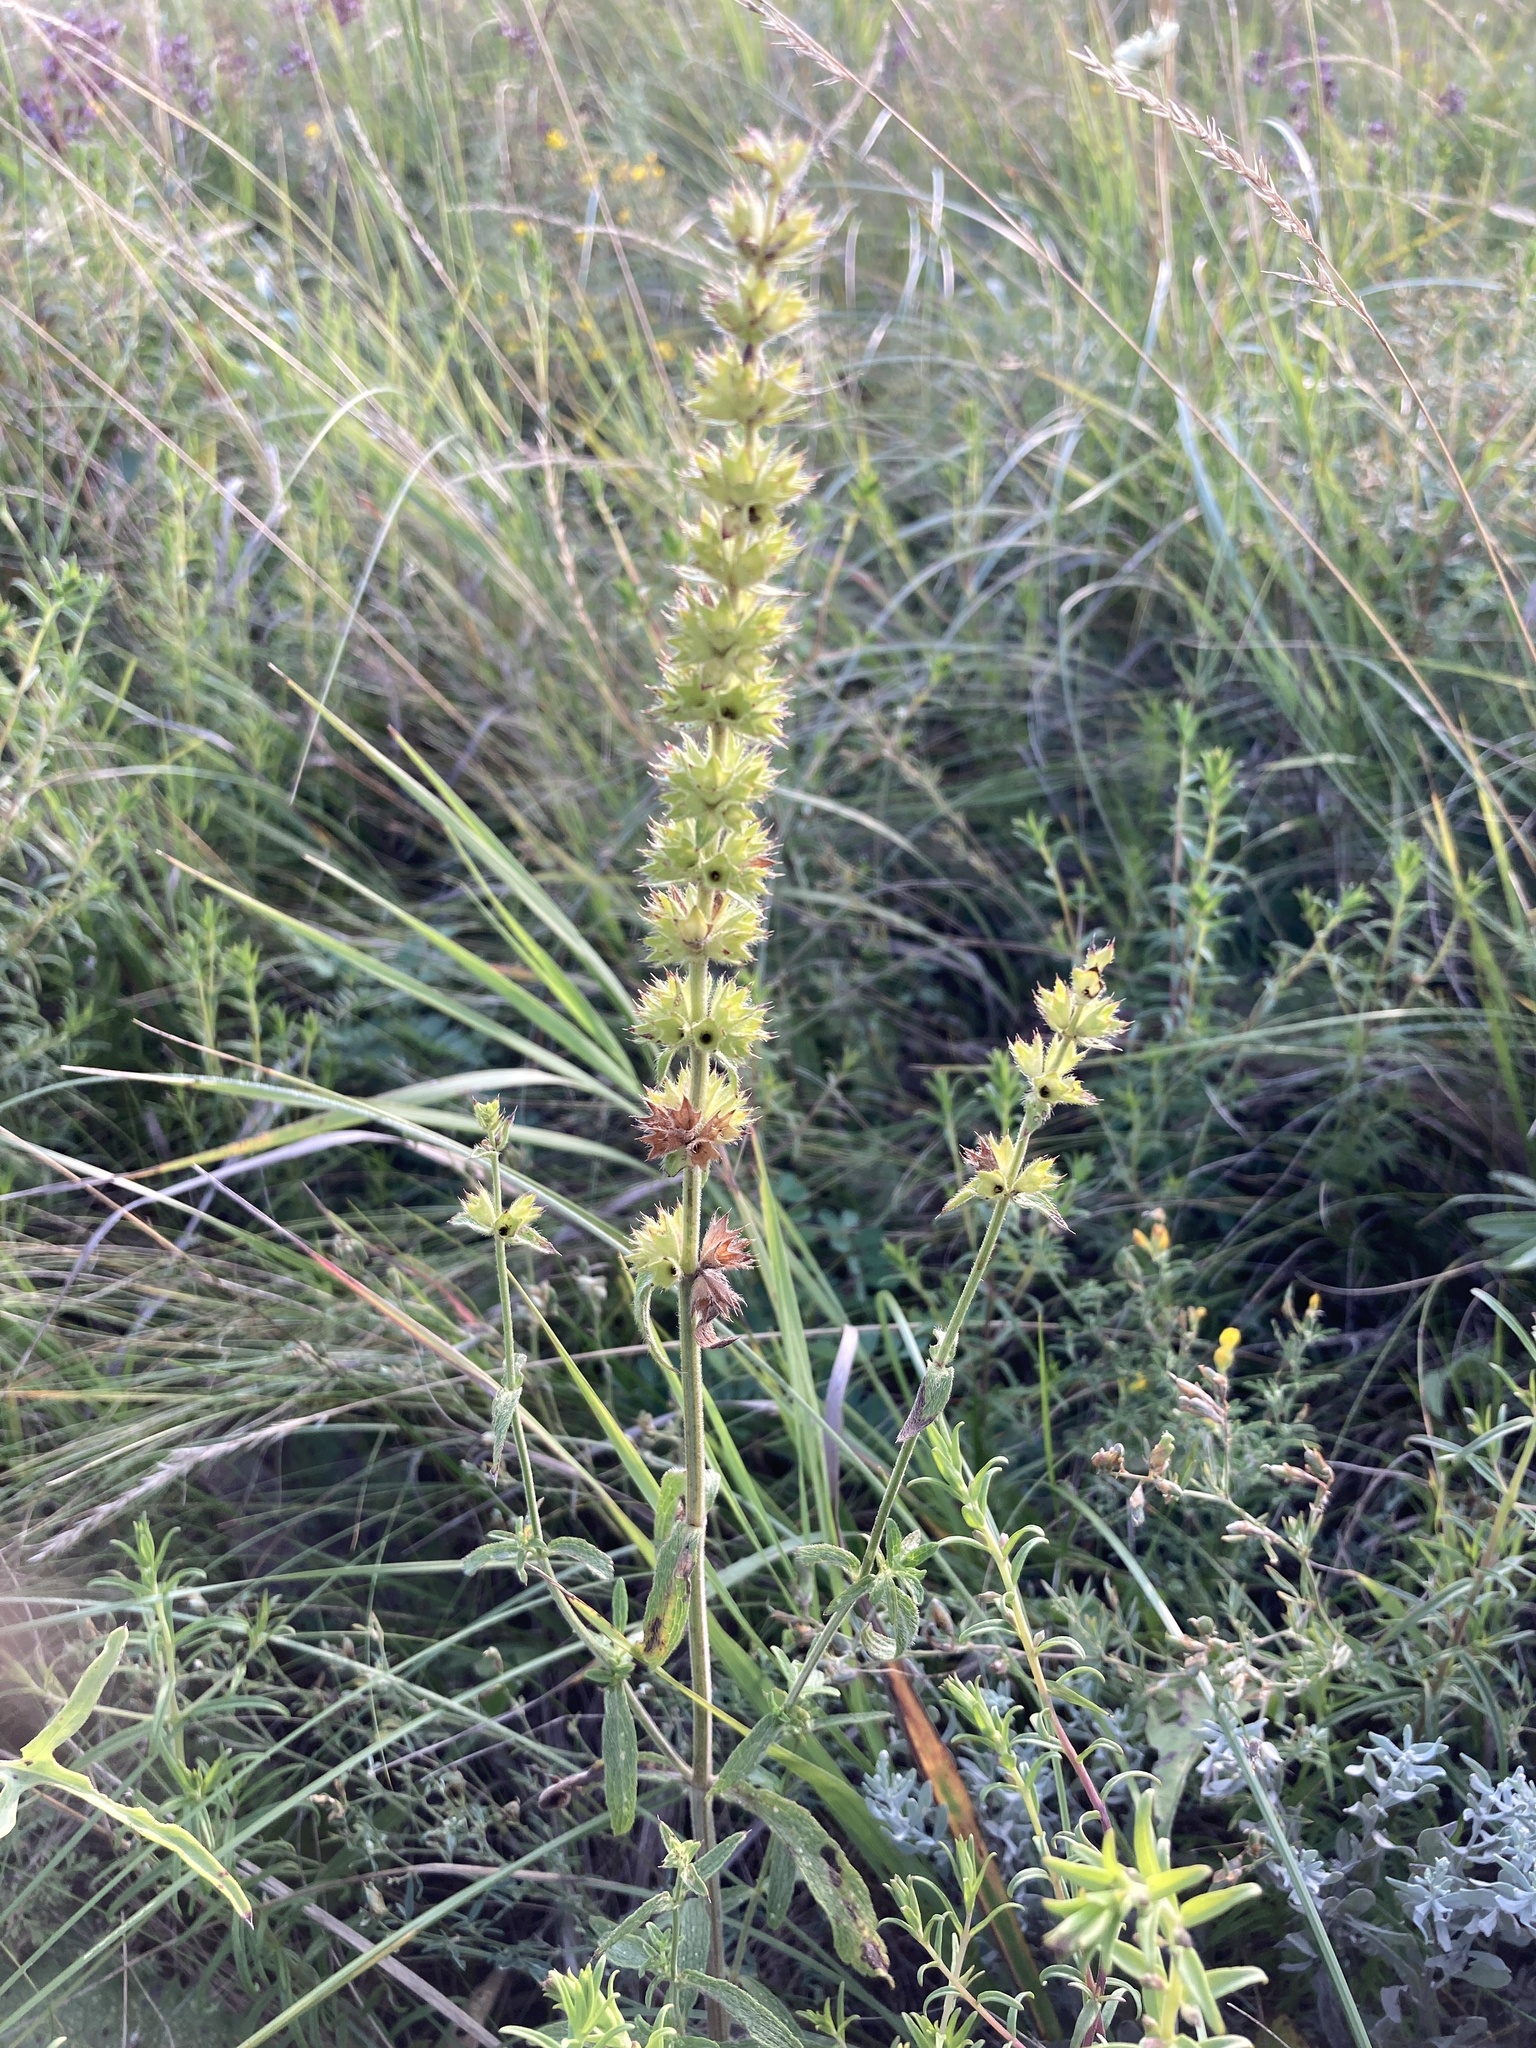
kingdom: Plantae
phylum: Tracheophyta
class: Magnoliopsida
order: Lamiales
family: Lamiaceae
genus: Stachys
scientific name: Stachys recta
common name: Perennial yellow-woundwort
